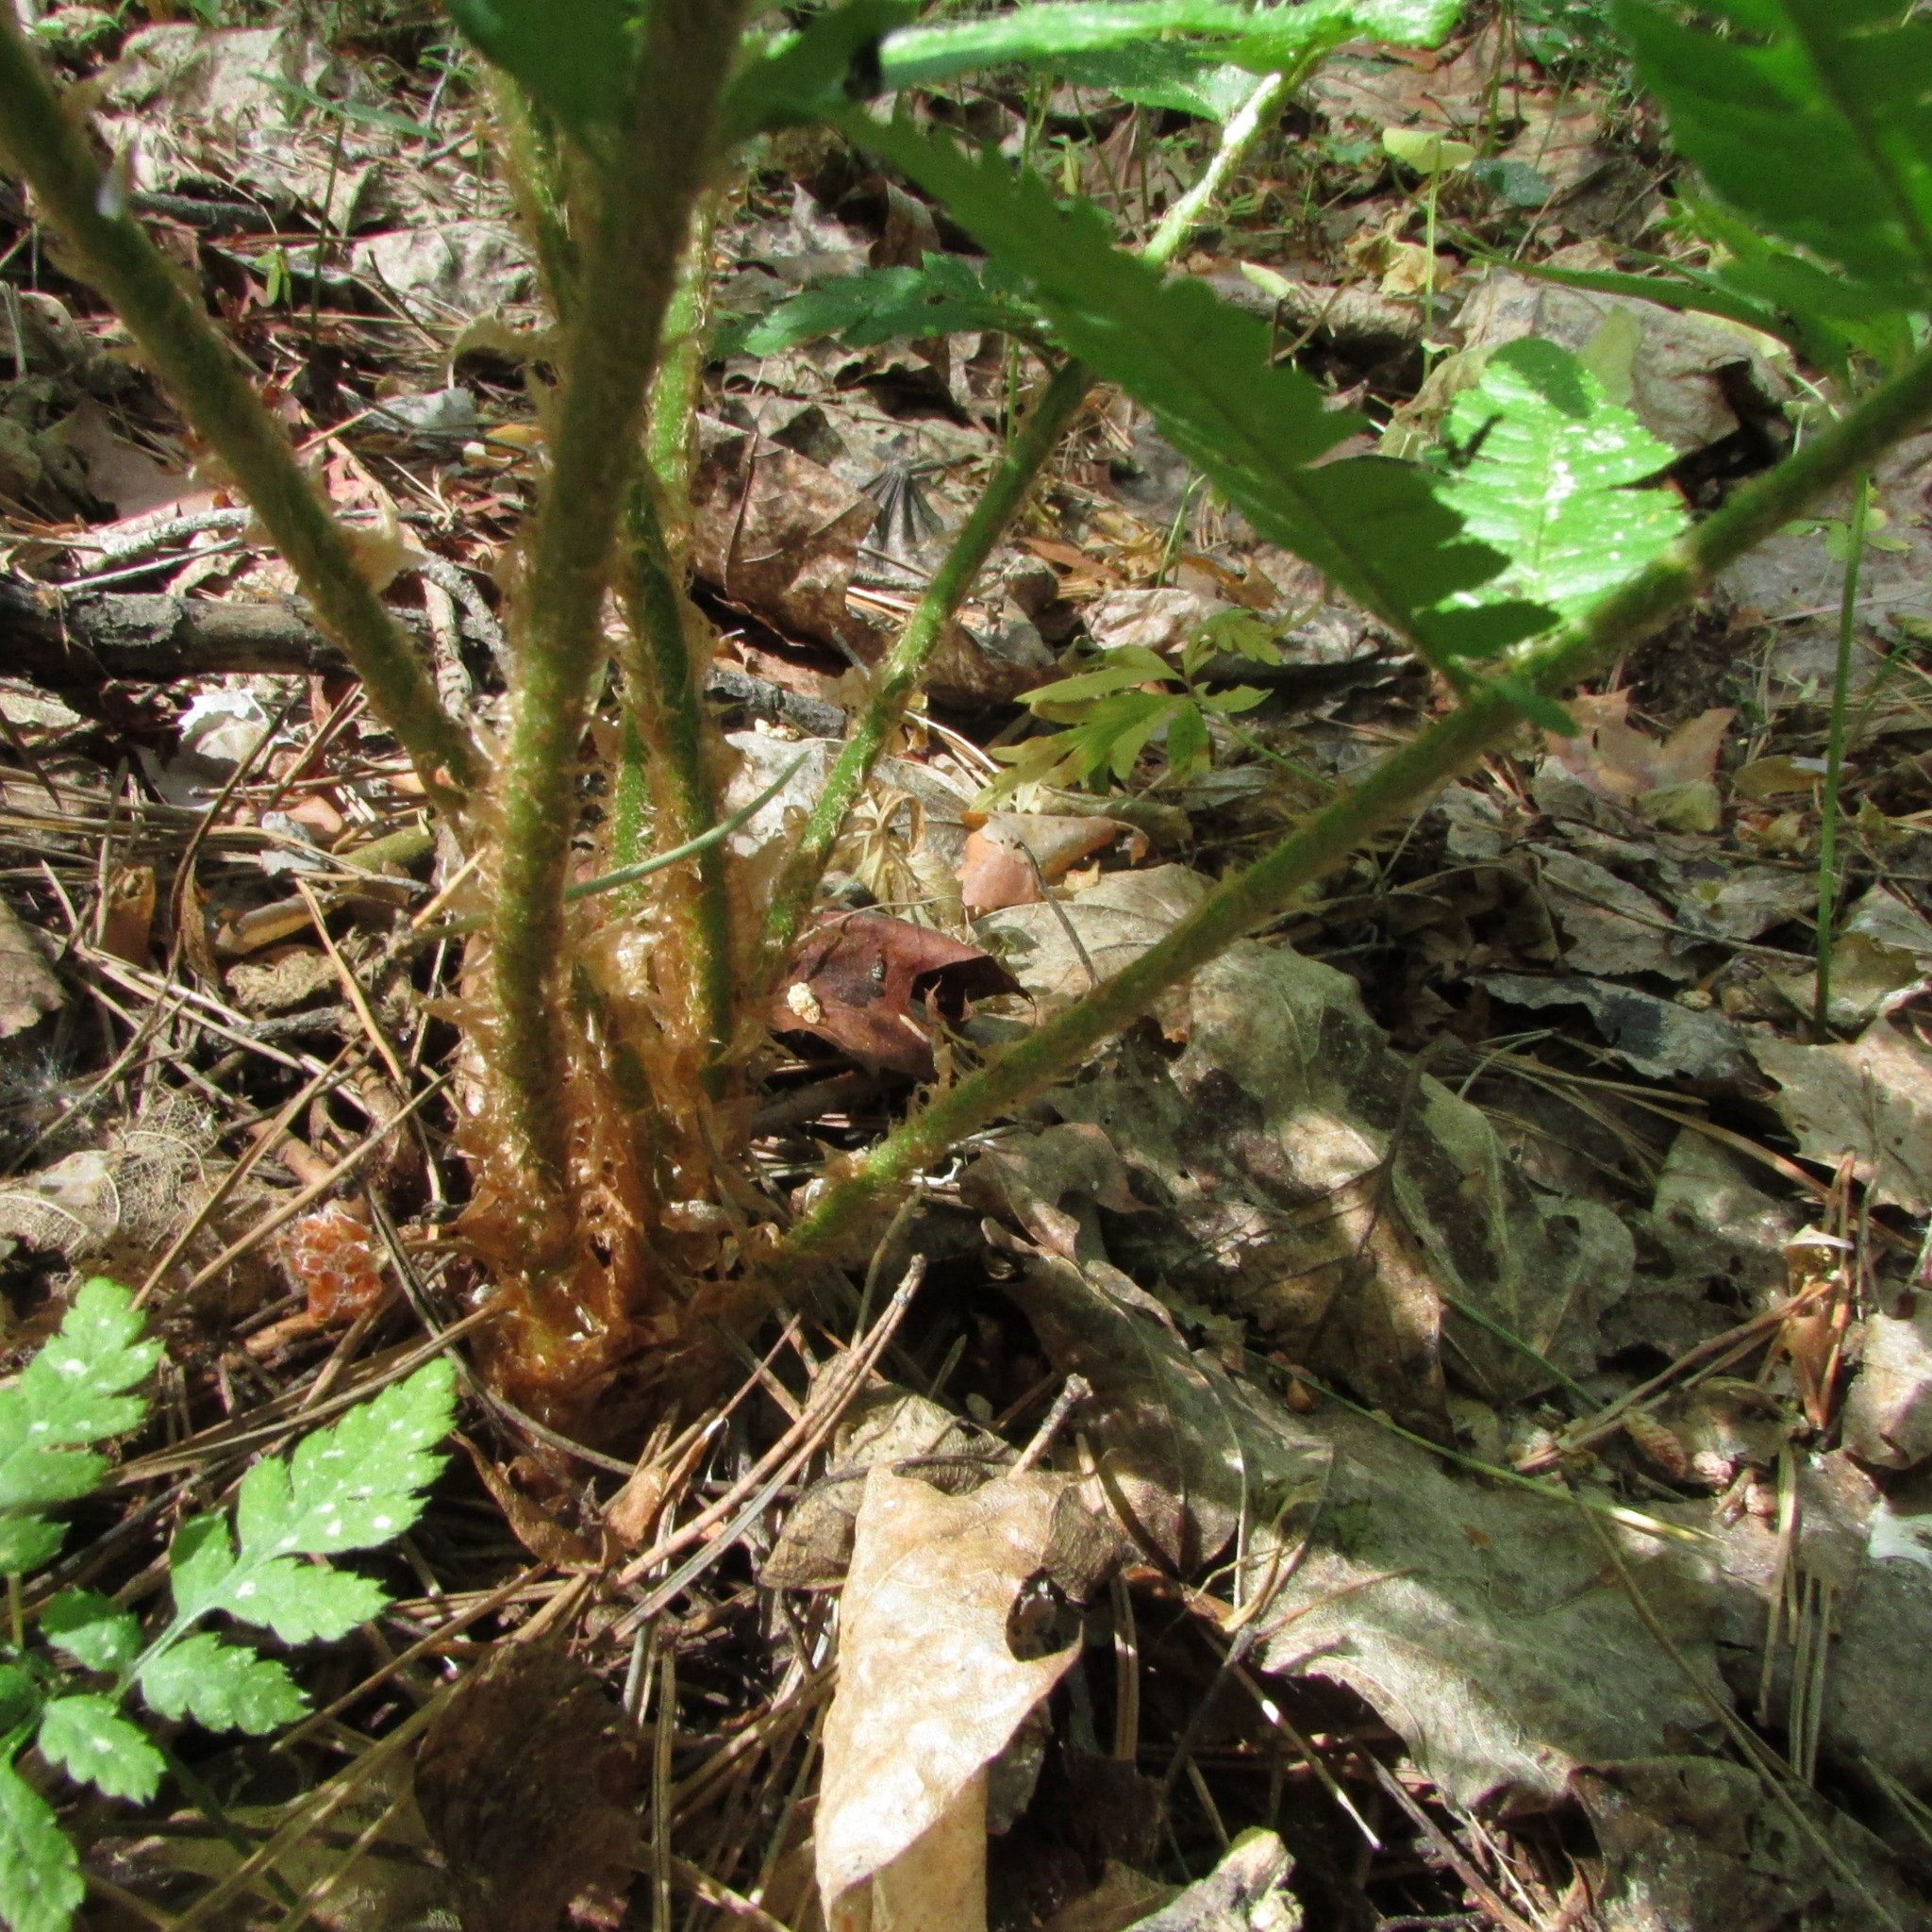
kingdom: Plantae
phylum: Tracheophyta
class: Polypodiopsida
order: Polypodiales
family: Dryopteridaceae
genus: Dryopteris
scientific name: Dryopteris filix-mas
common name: Male fern
